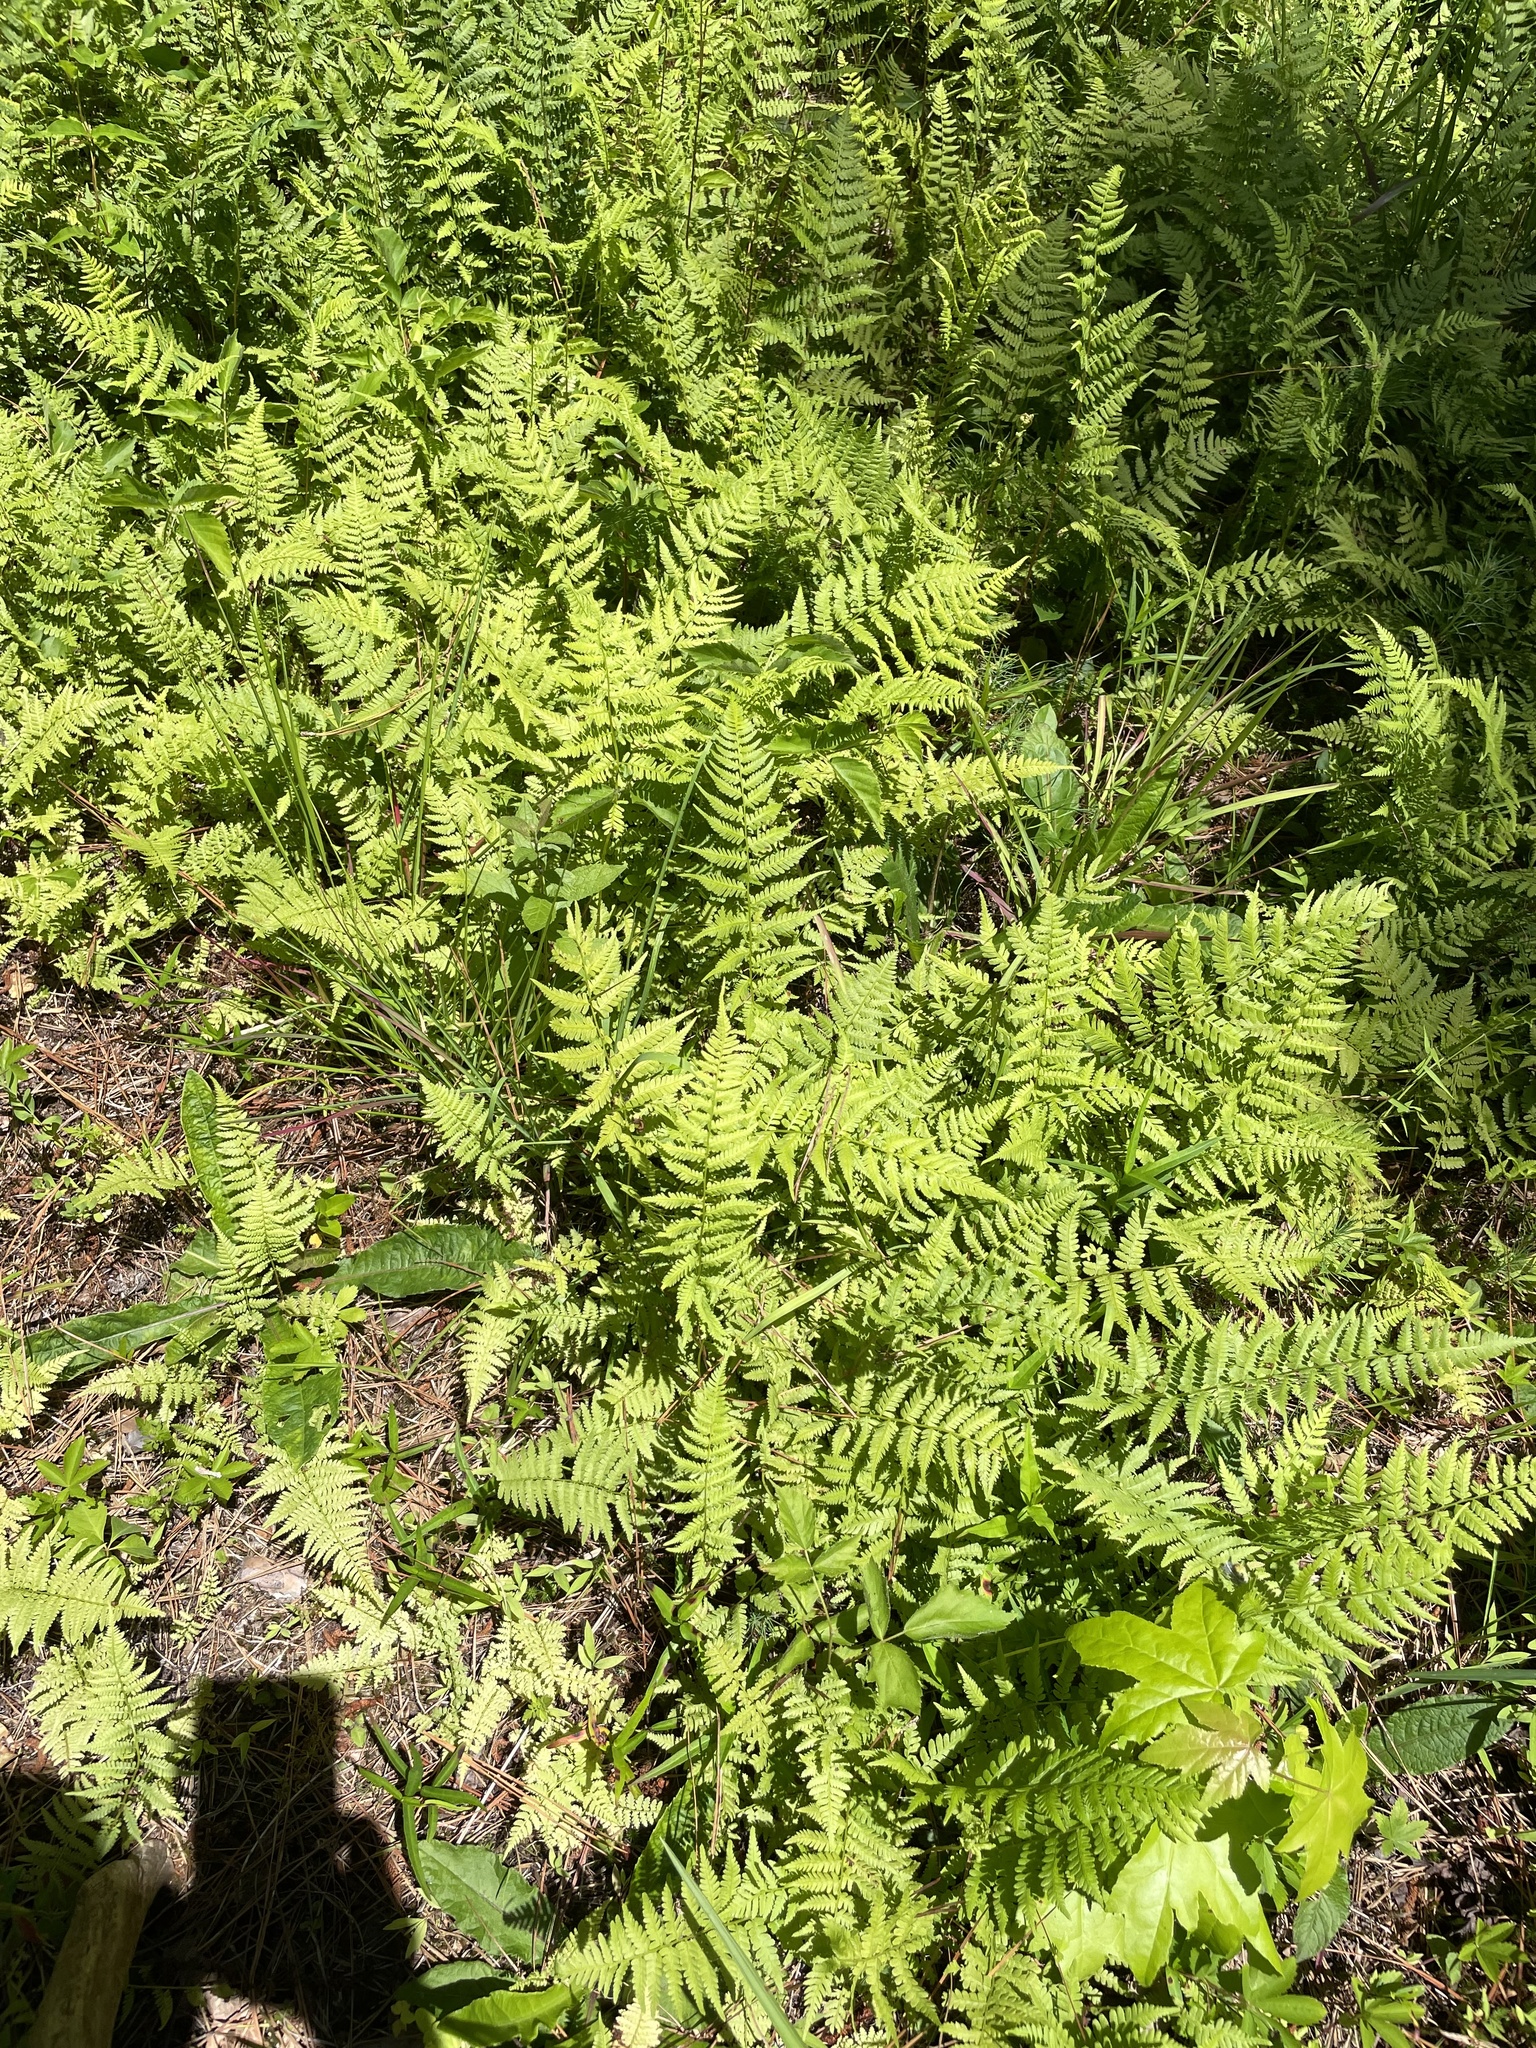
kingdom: Plantae
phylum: Tracheophyta
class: Polypodiopsida
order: Polypodiales
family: Athyriaceae
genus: Athyrium
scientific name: Athyrium asplenioides
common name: Southern lady fern
